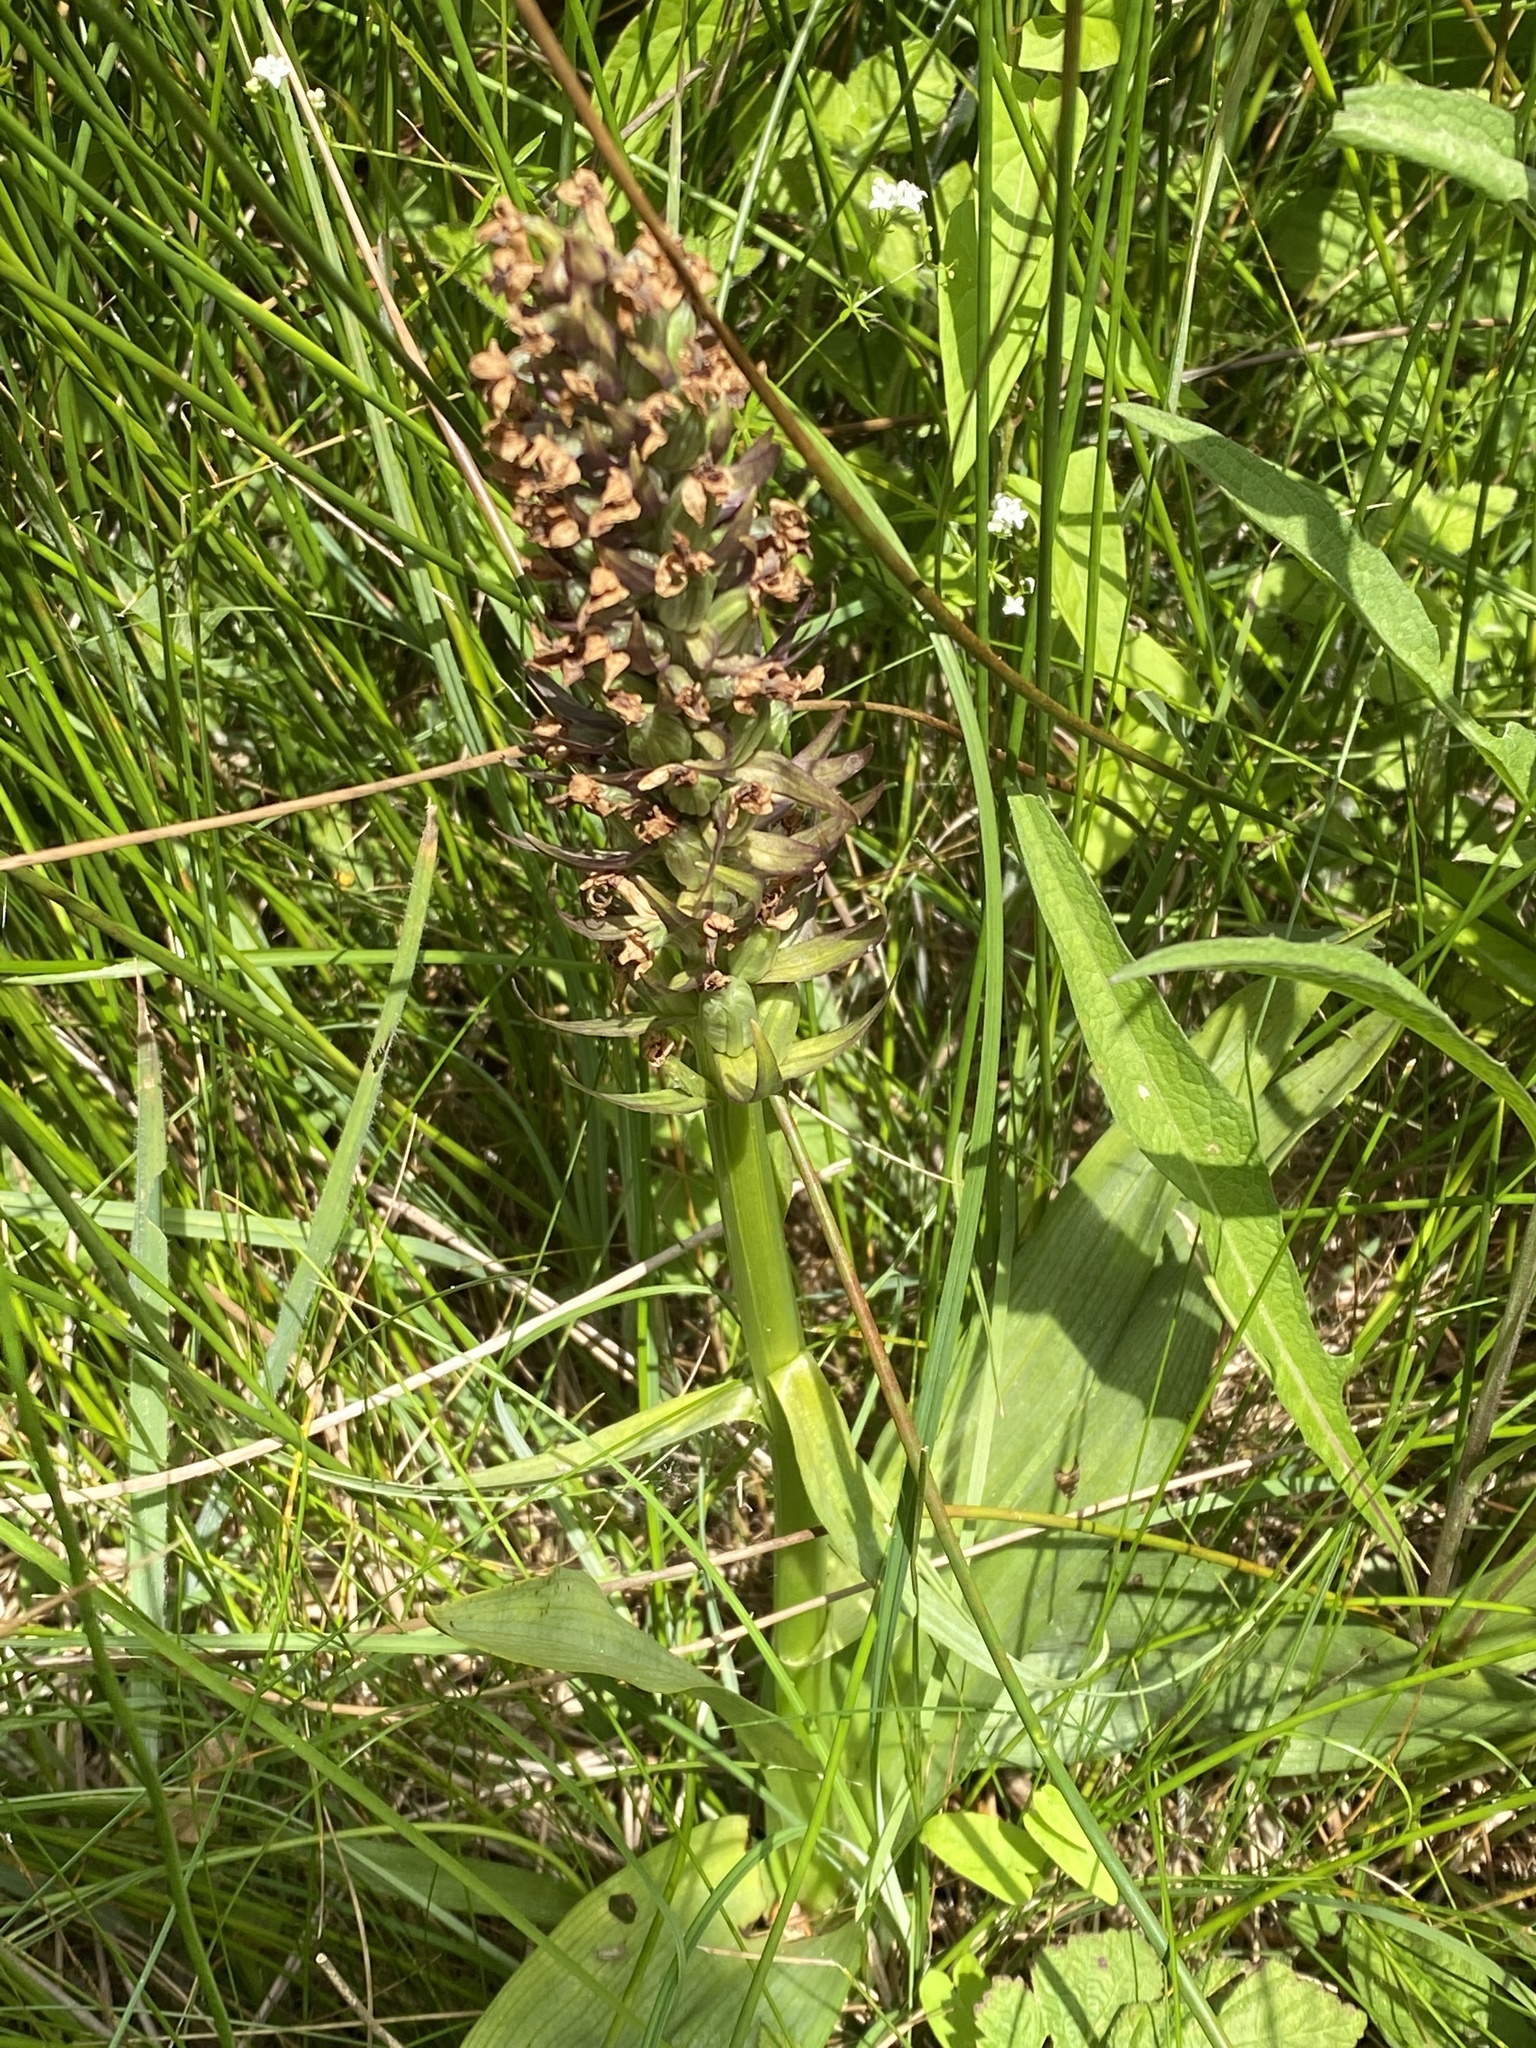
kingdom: Plantae
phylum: Tracheophyta
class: Liliopsida
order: Asparagales
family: Orchidaceae
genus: Dactylorhiza
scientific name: Dactylorhiza incarnata
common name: Early marsh-orchid
